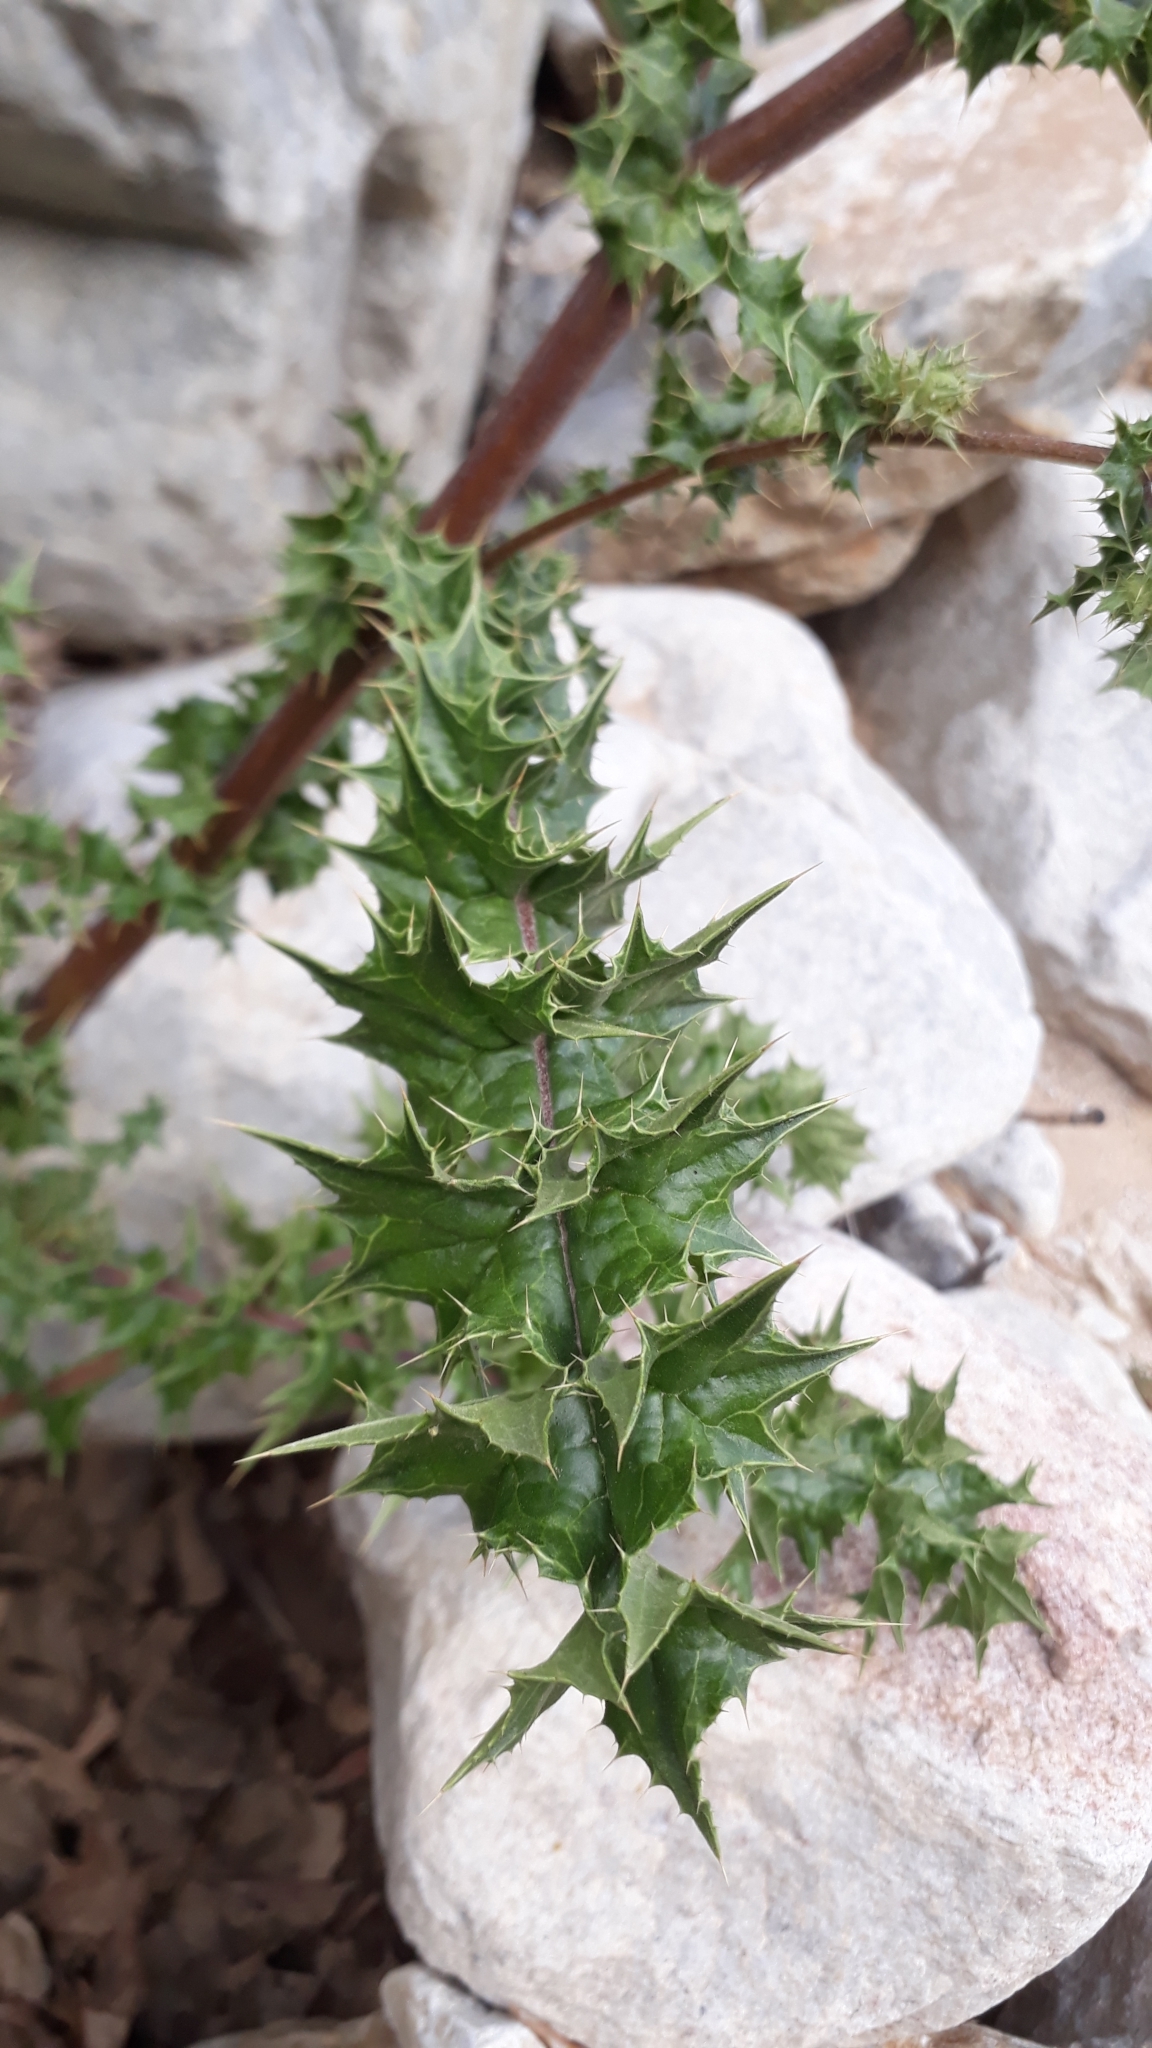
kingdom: Plantae
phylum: Tracheophyta
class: Magnoliopsida
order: Asterales
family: Asteraceae
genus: Berkheya
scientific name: Berkheya onobromoides
